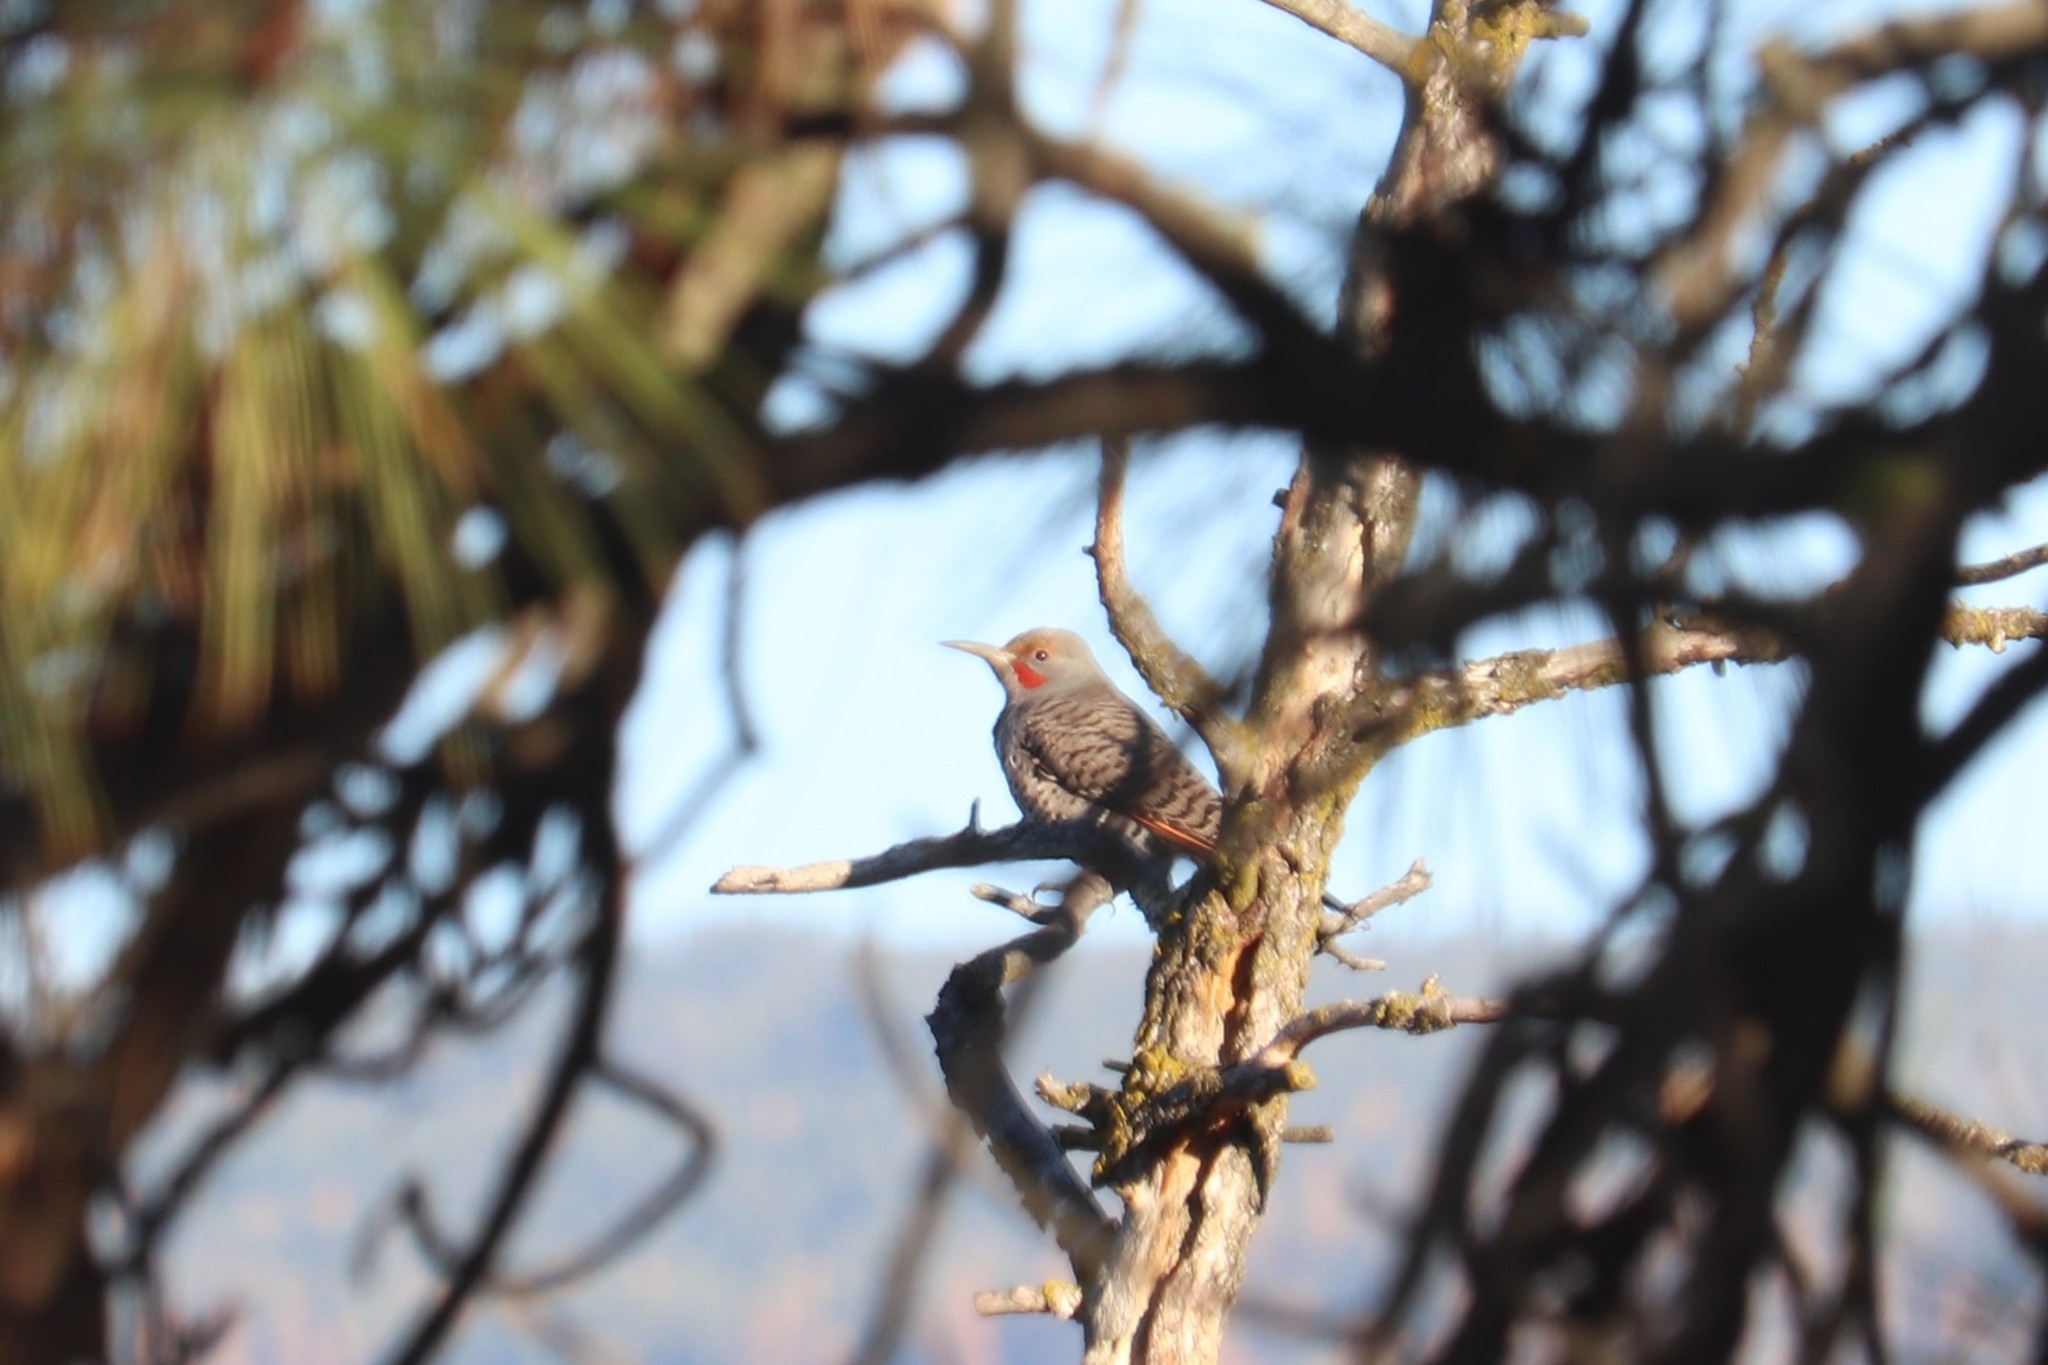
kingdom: Animalia
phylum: Chordata
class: Aves
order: Piciformes
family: Picidae
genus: Colaptes
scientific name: Colaptes auratus
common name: Northern flicker
